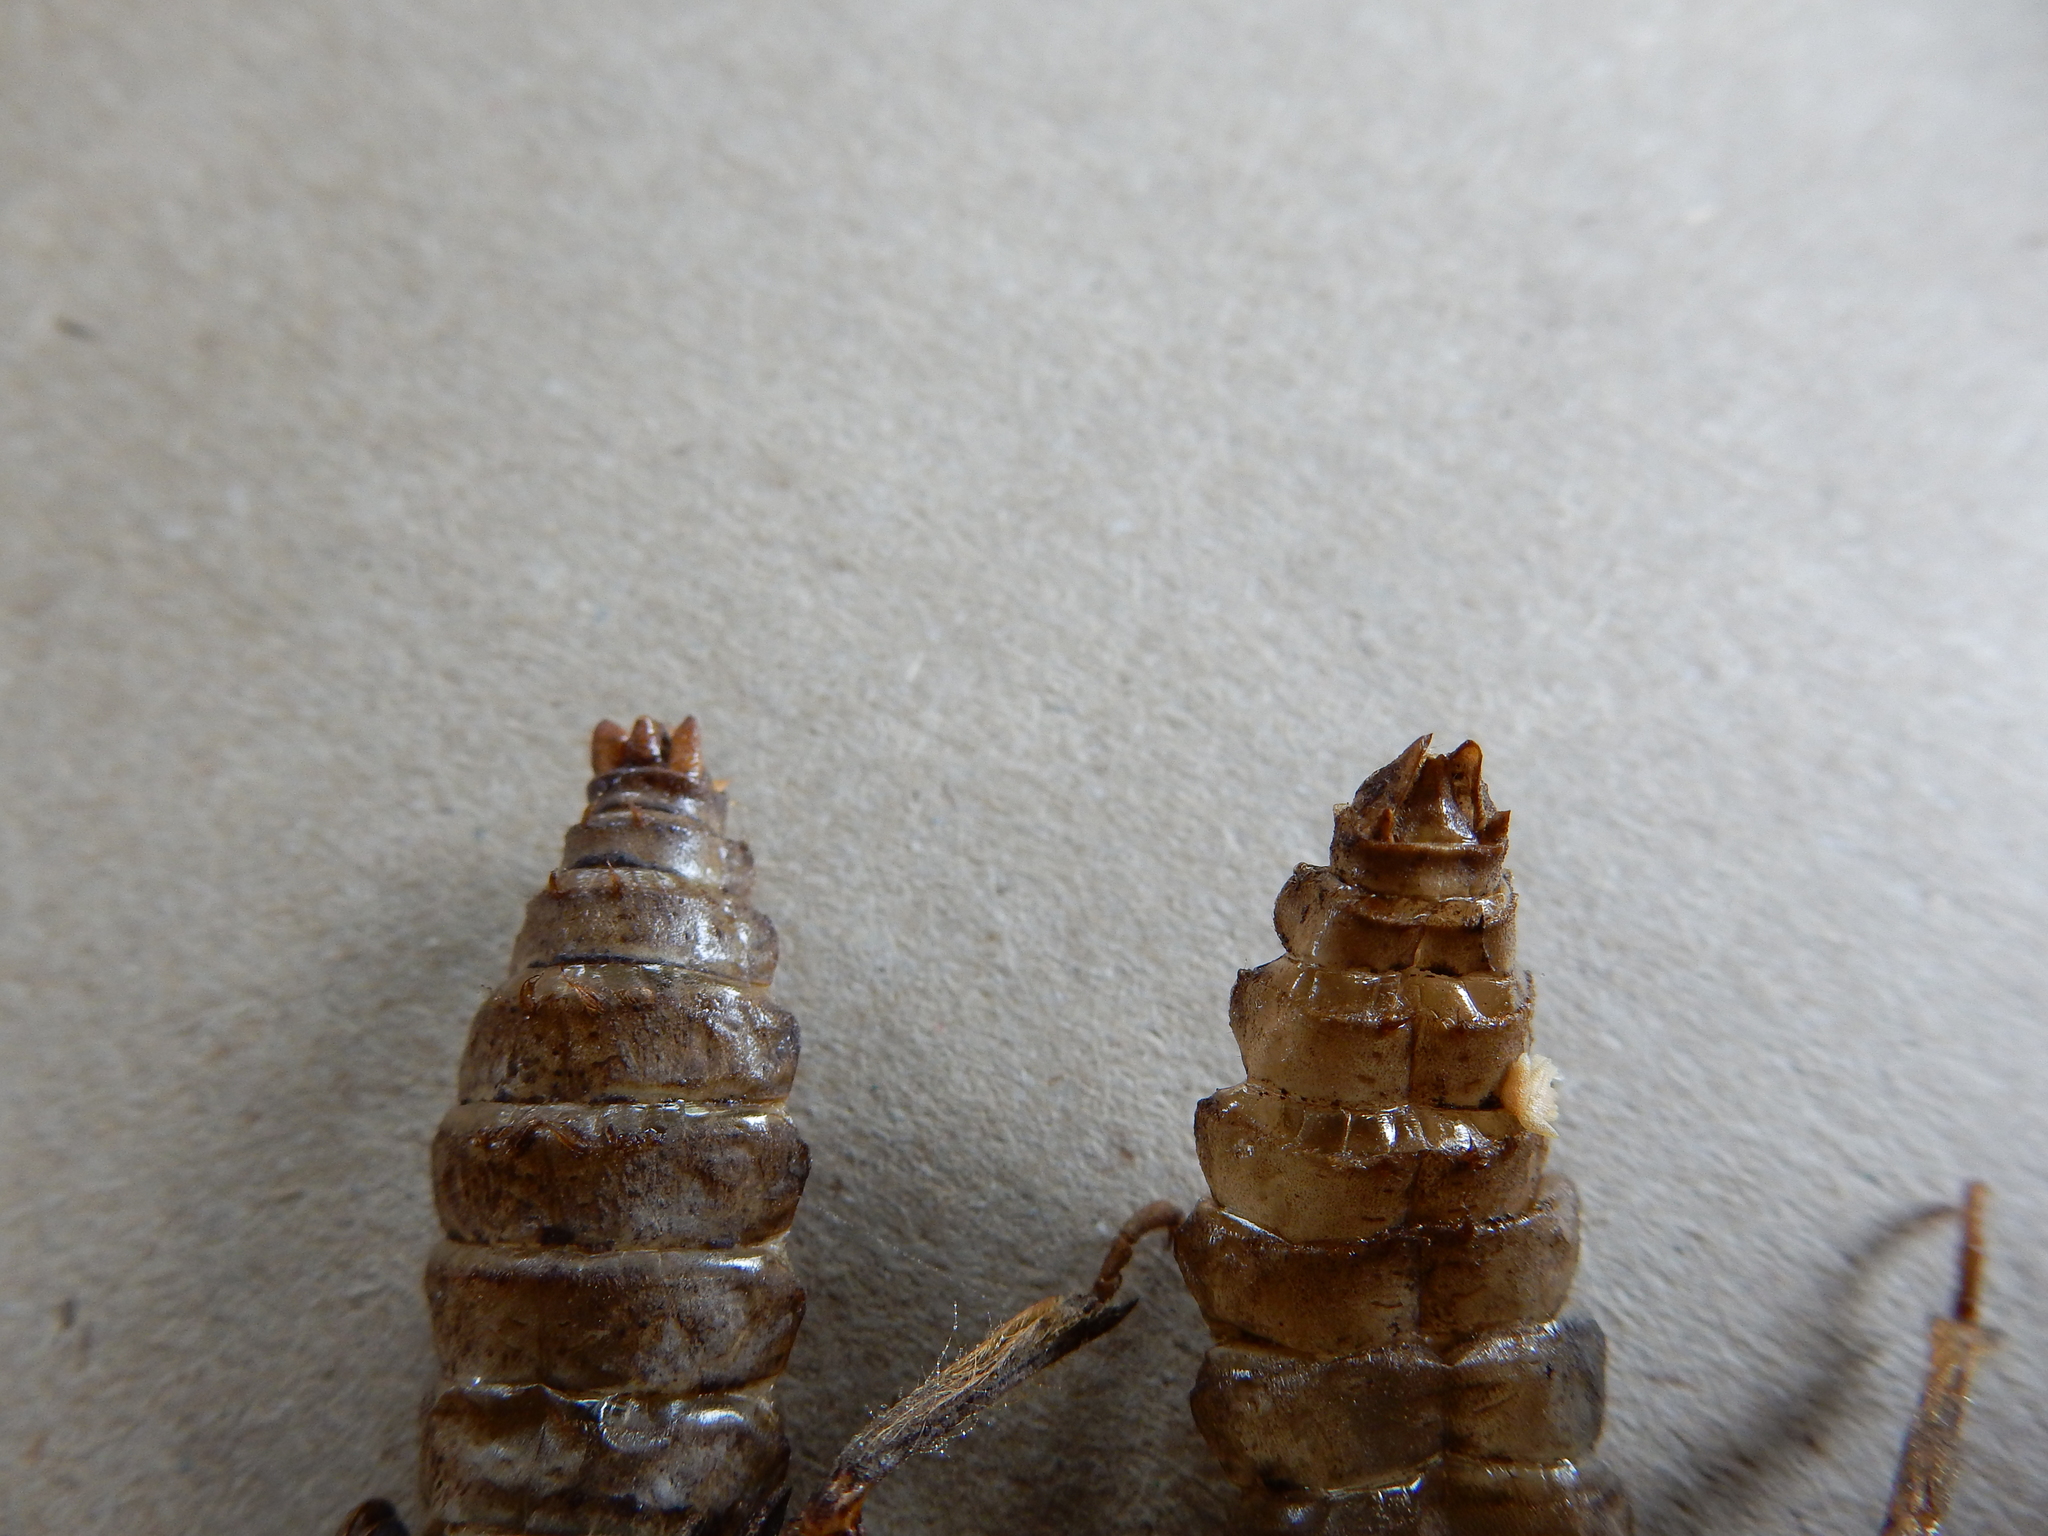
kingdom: Animalia
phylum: Arthropoda
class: Insecta
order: Odonata
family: Petaluridae
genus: Uropetala
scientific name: Uropetala chiltoni
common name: Mountain giant dragonfly
